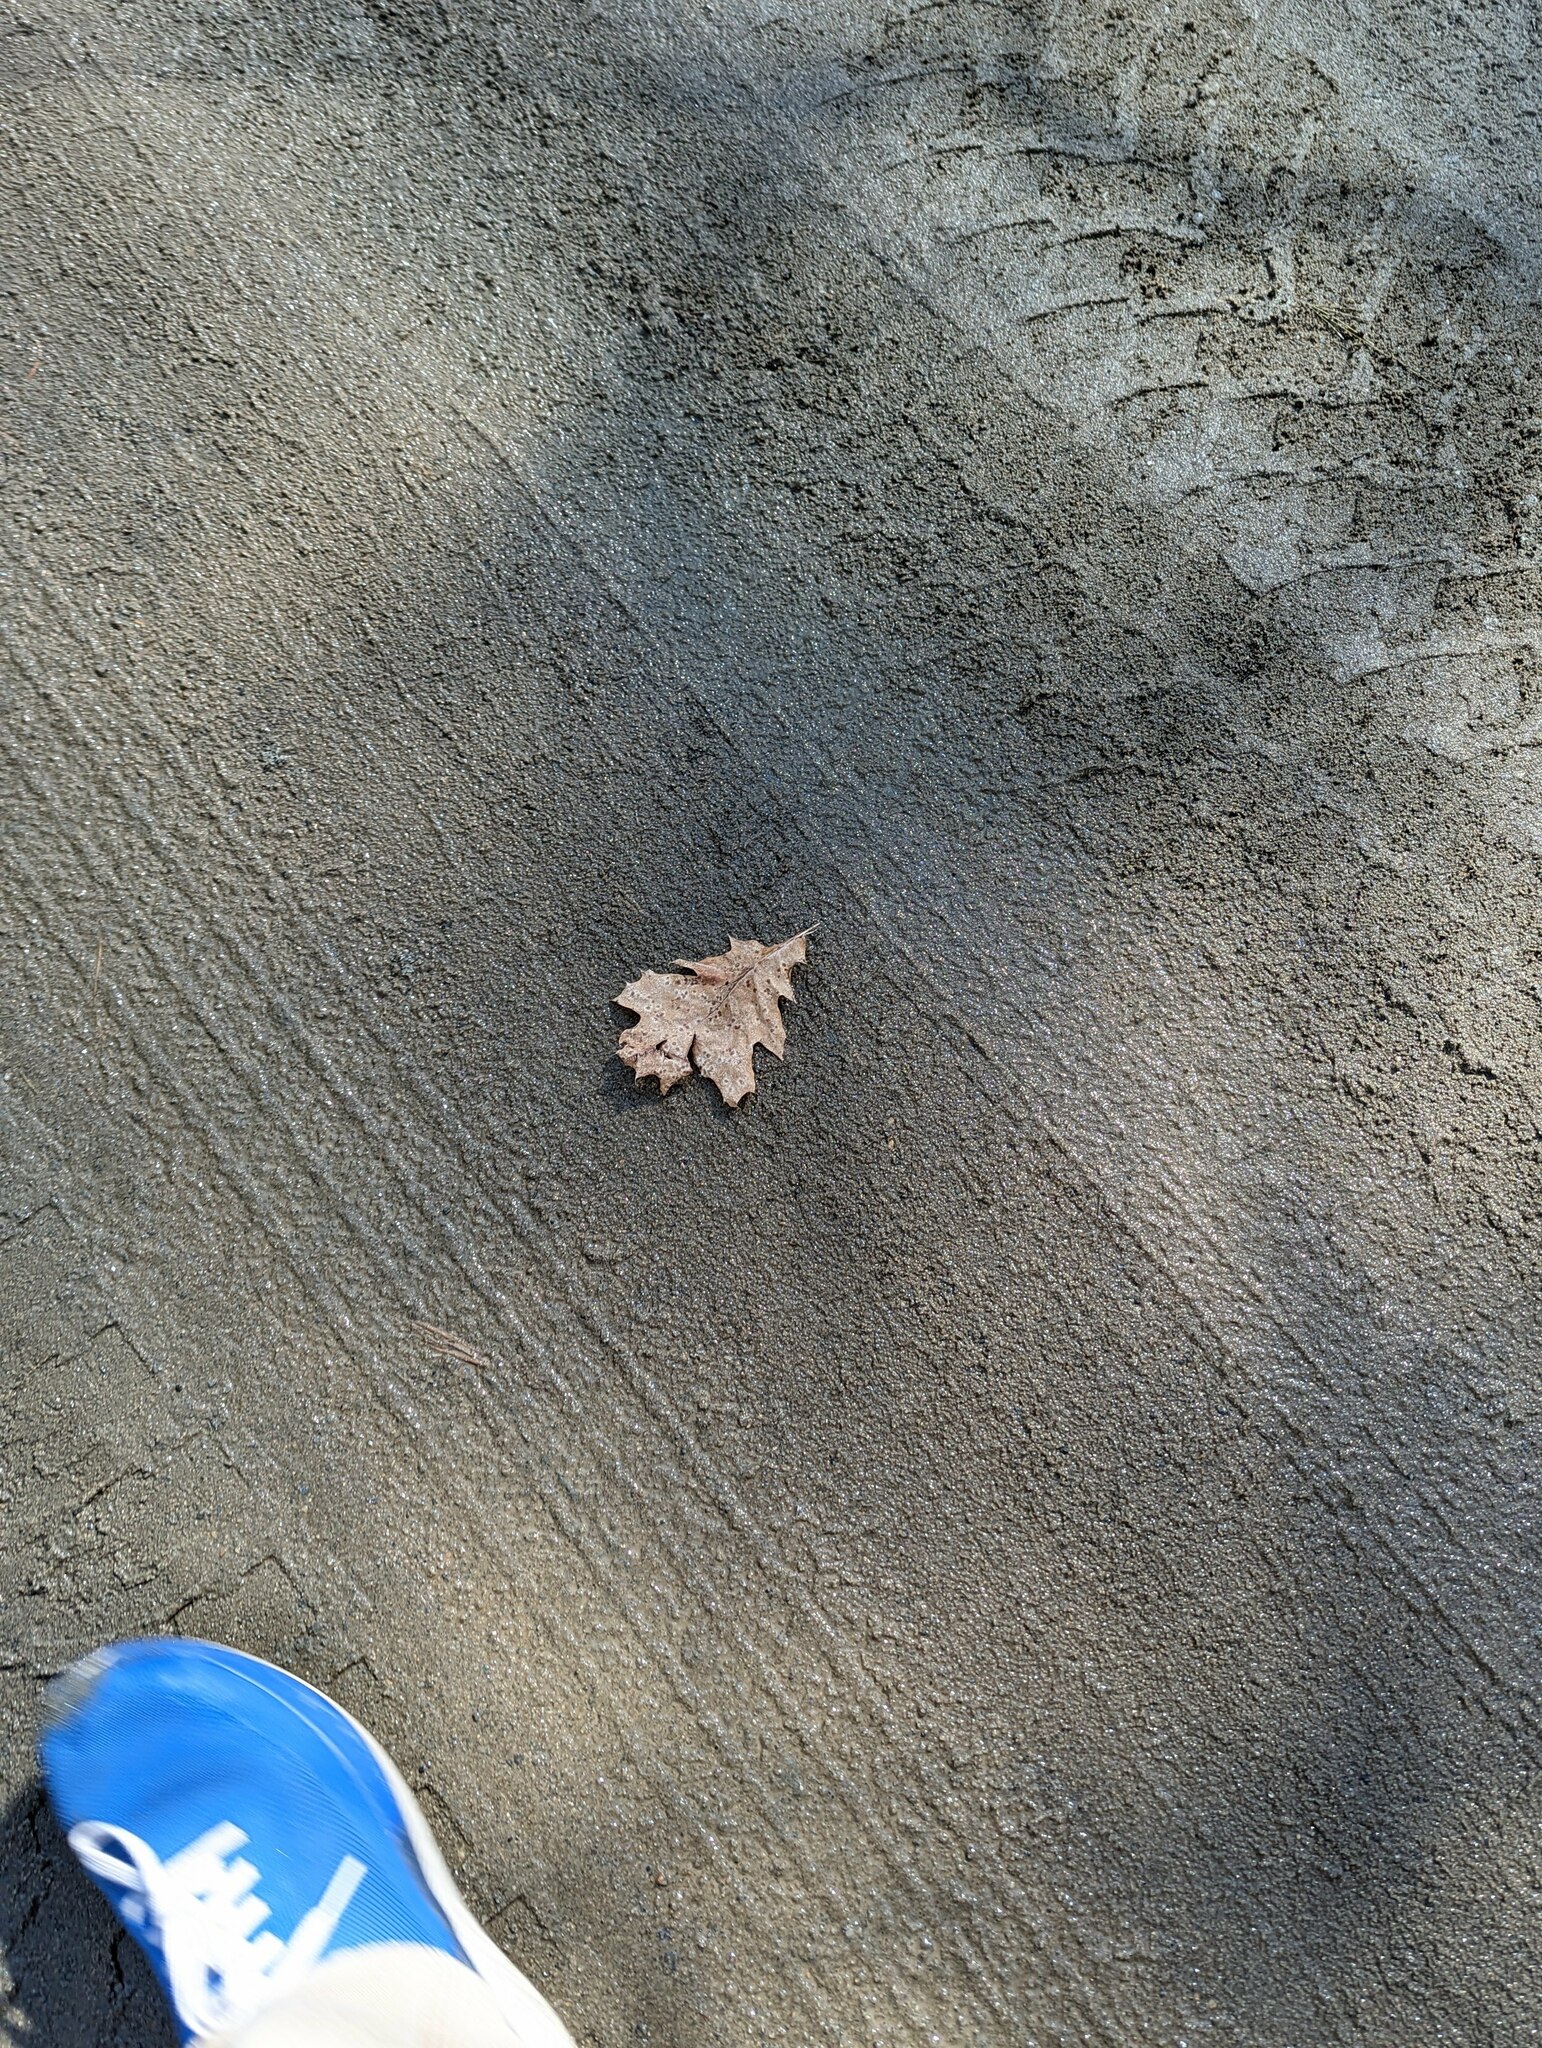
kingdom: Plantae
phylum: Tracheophyta
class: Magnoliopsida
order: Fagales
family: Fagaceae
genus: Quercus
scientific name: Quercus rubra
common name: Red oak
